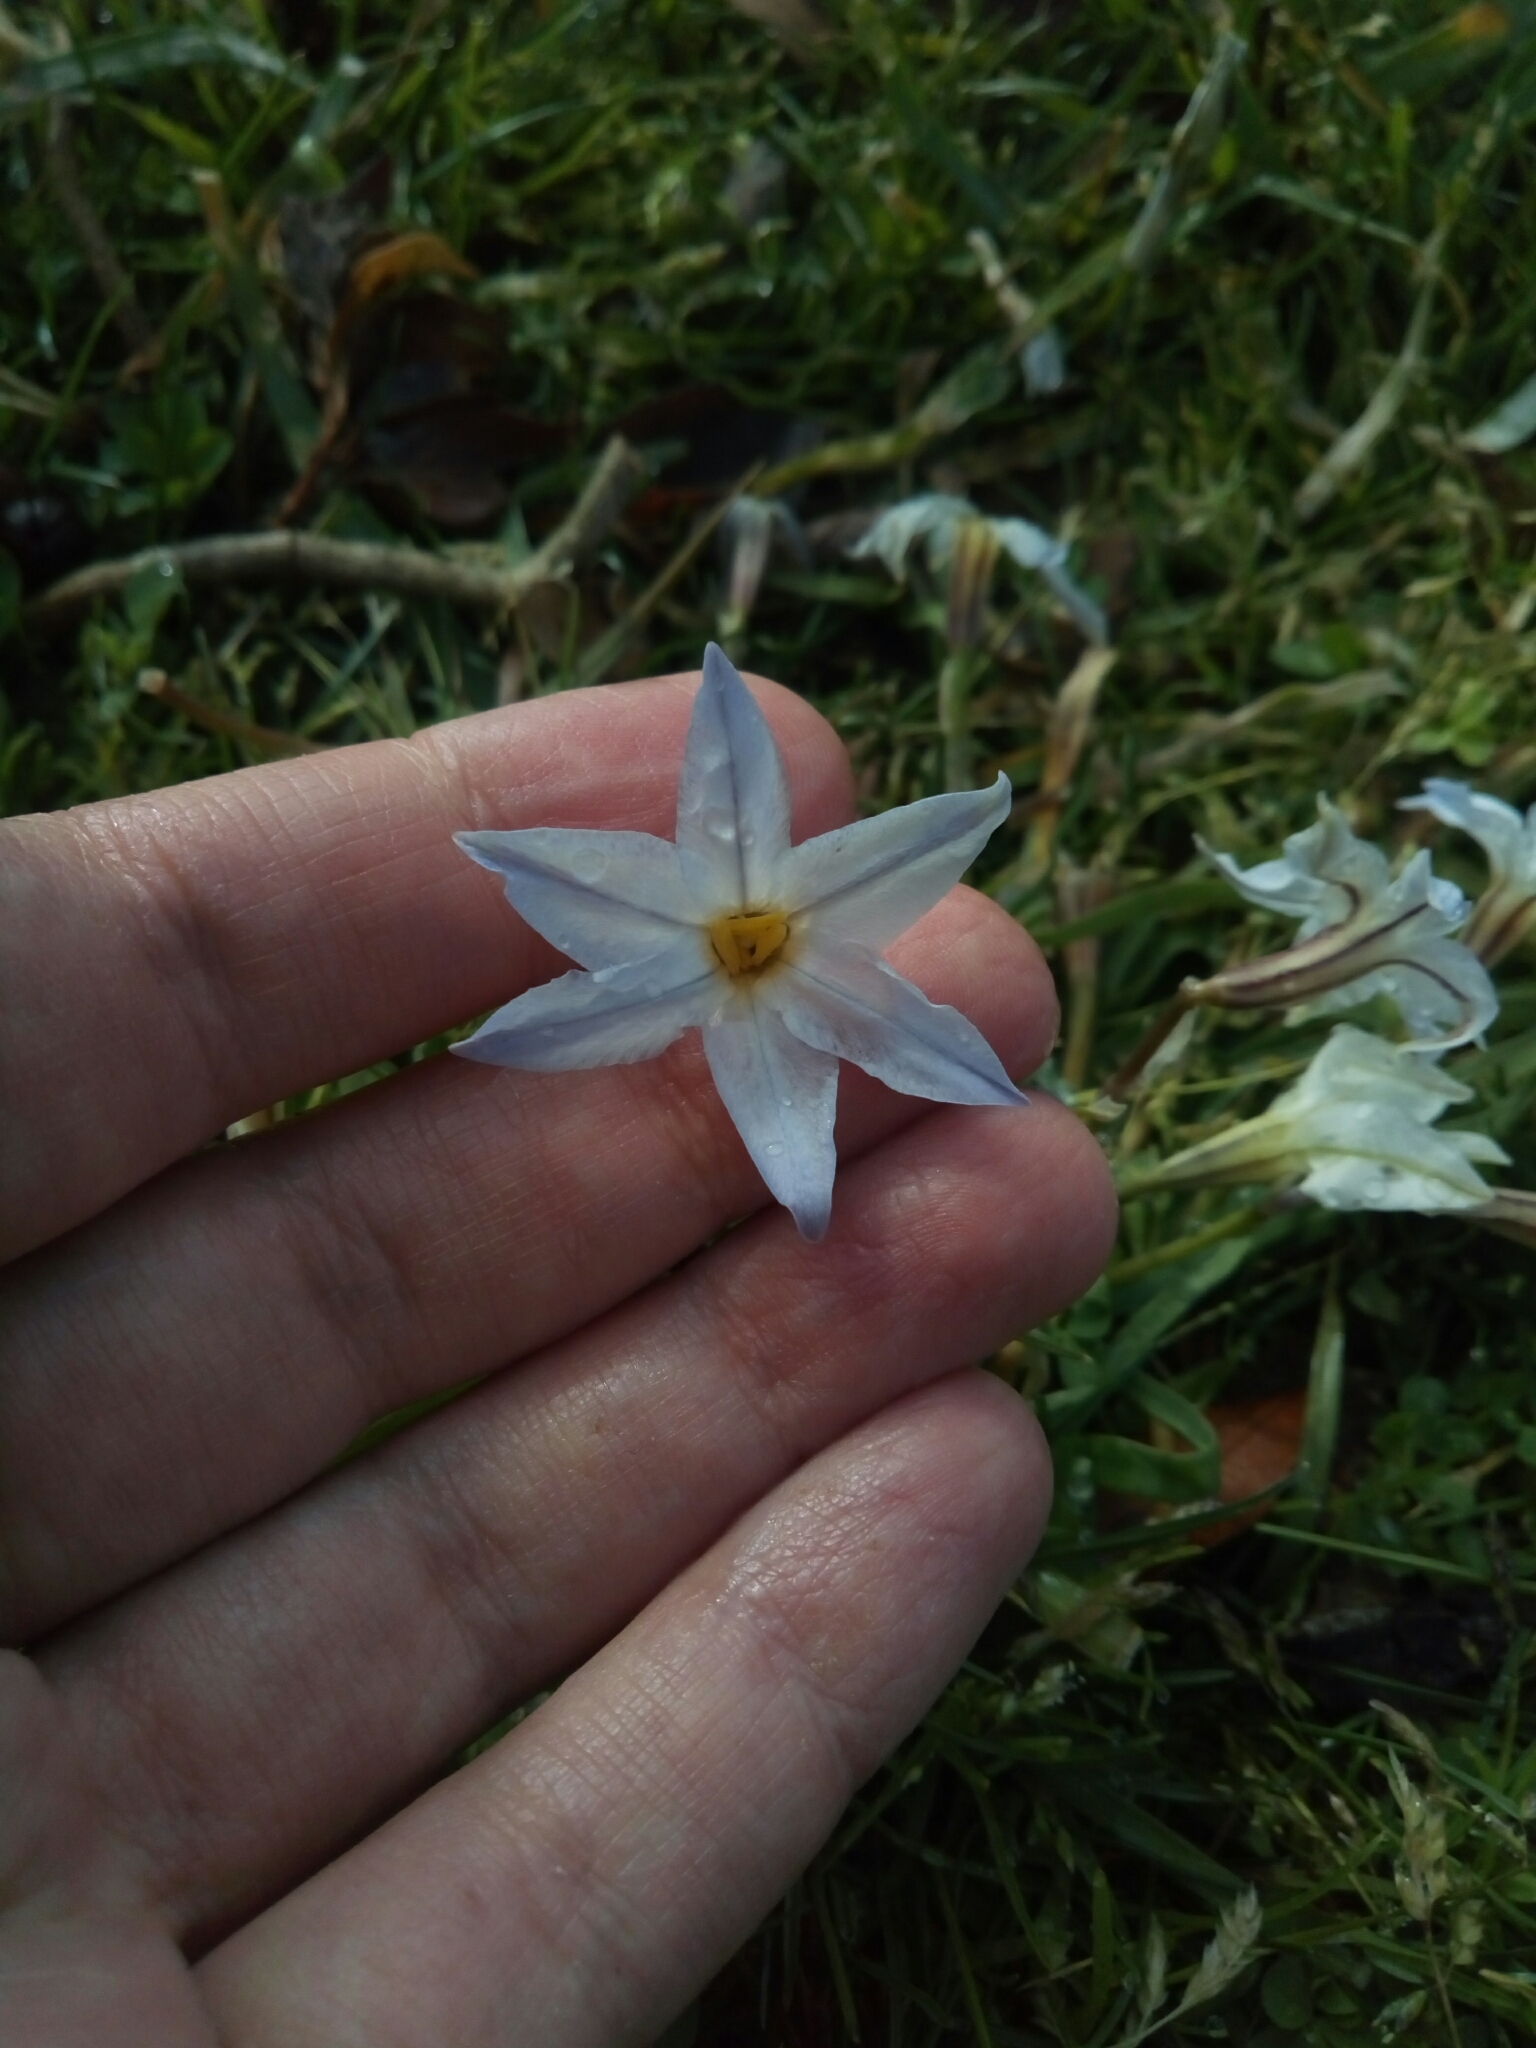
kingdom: Plantae
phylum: Tracheophyta
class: Liliopsida
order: Asparagales
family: Amaryllidaceae
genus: Ipheion
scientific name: Ipheion uniflorum
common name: Spring starflower
